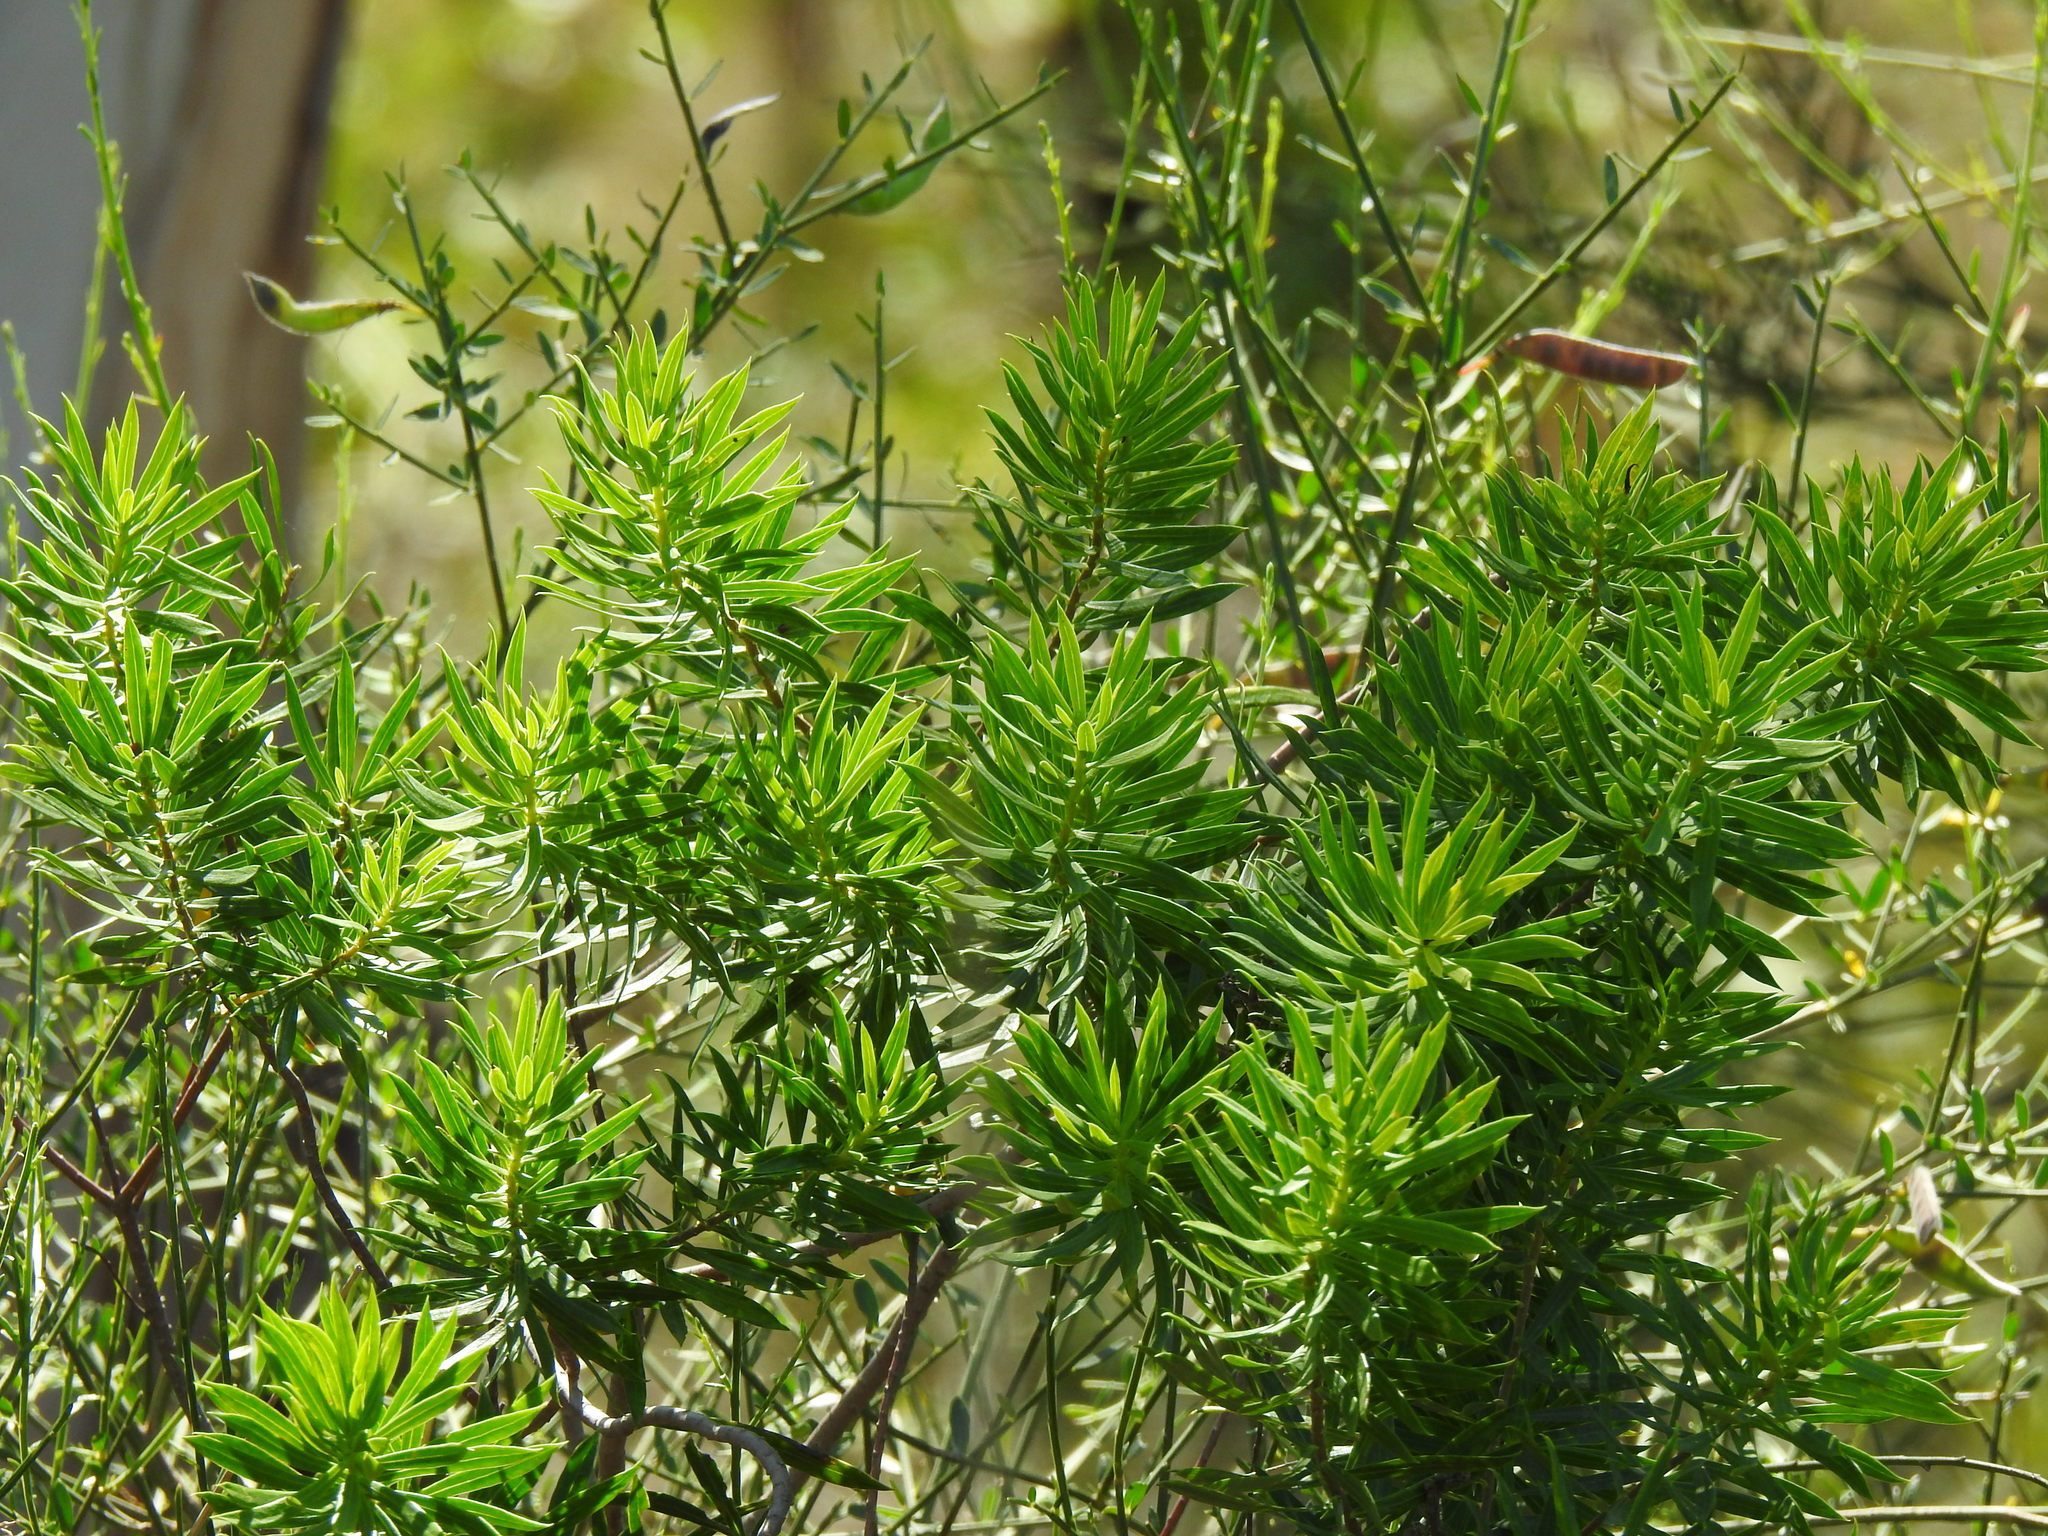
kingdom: Plantae
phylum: Tracheophyta
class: Magnoliopsida
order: Malvales
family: Thymelaeaceae
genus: Daphne
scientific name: Daphne gnidium
